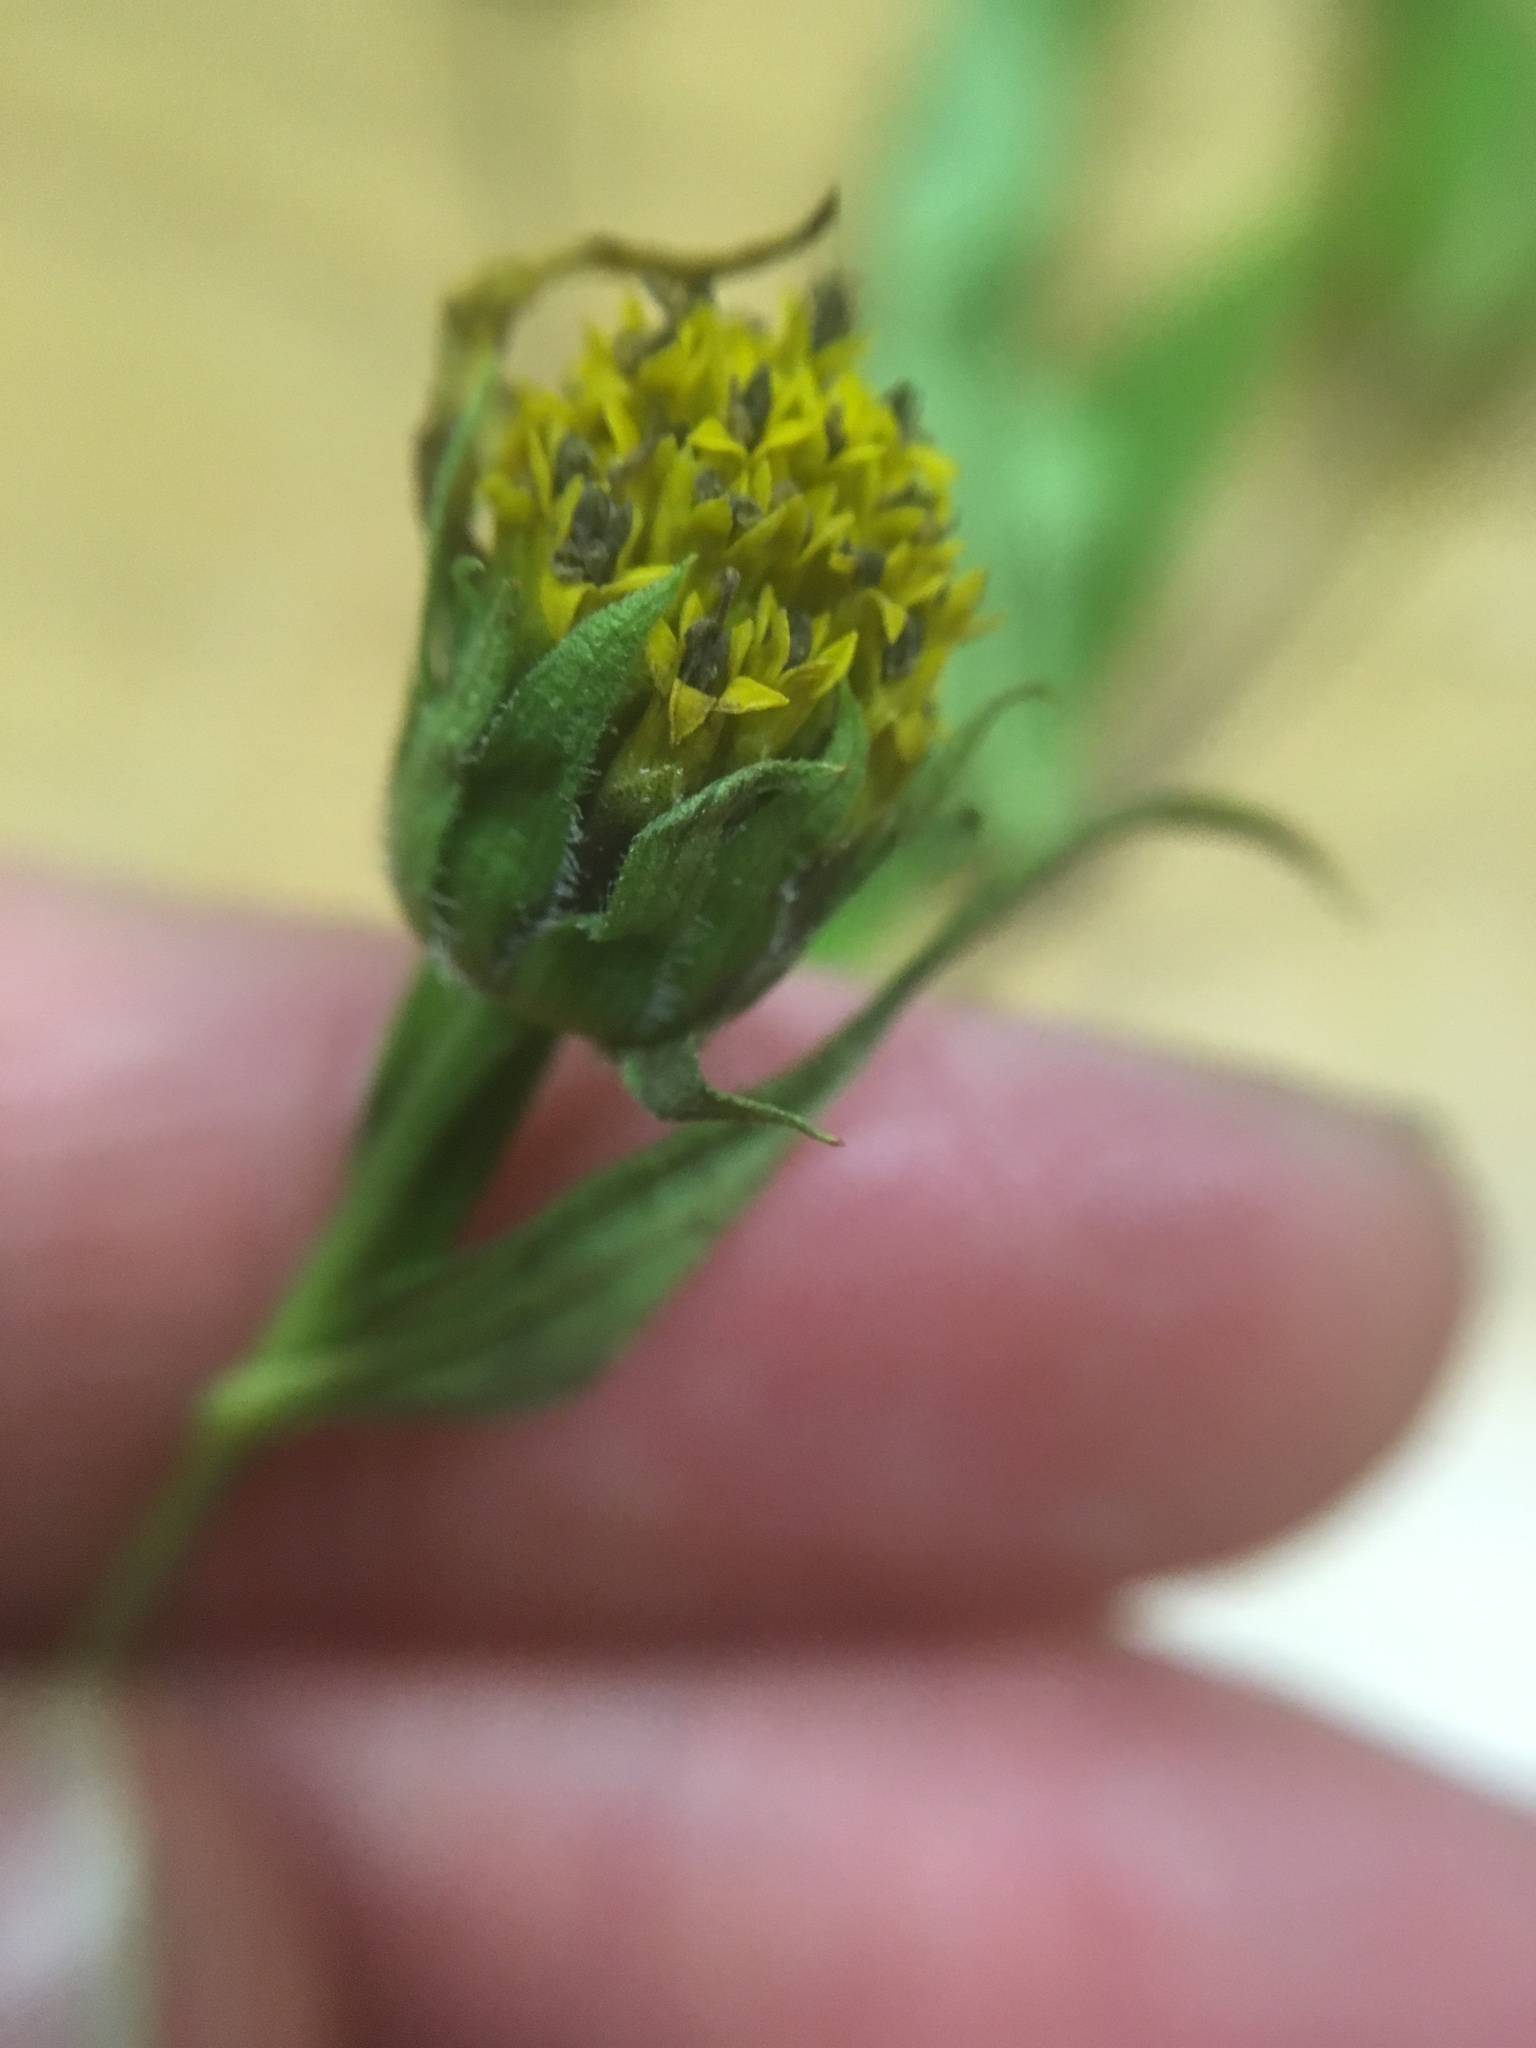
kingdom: Plantae
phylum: Tracheophyta
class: Magnoliopsida
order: Asterales
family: Asteraceae
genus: Helianthus
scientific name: Helianthus decapetalus
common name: Thin-leaved sunflower
